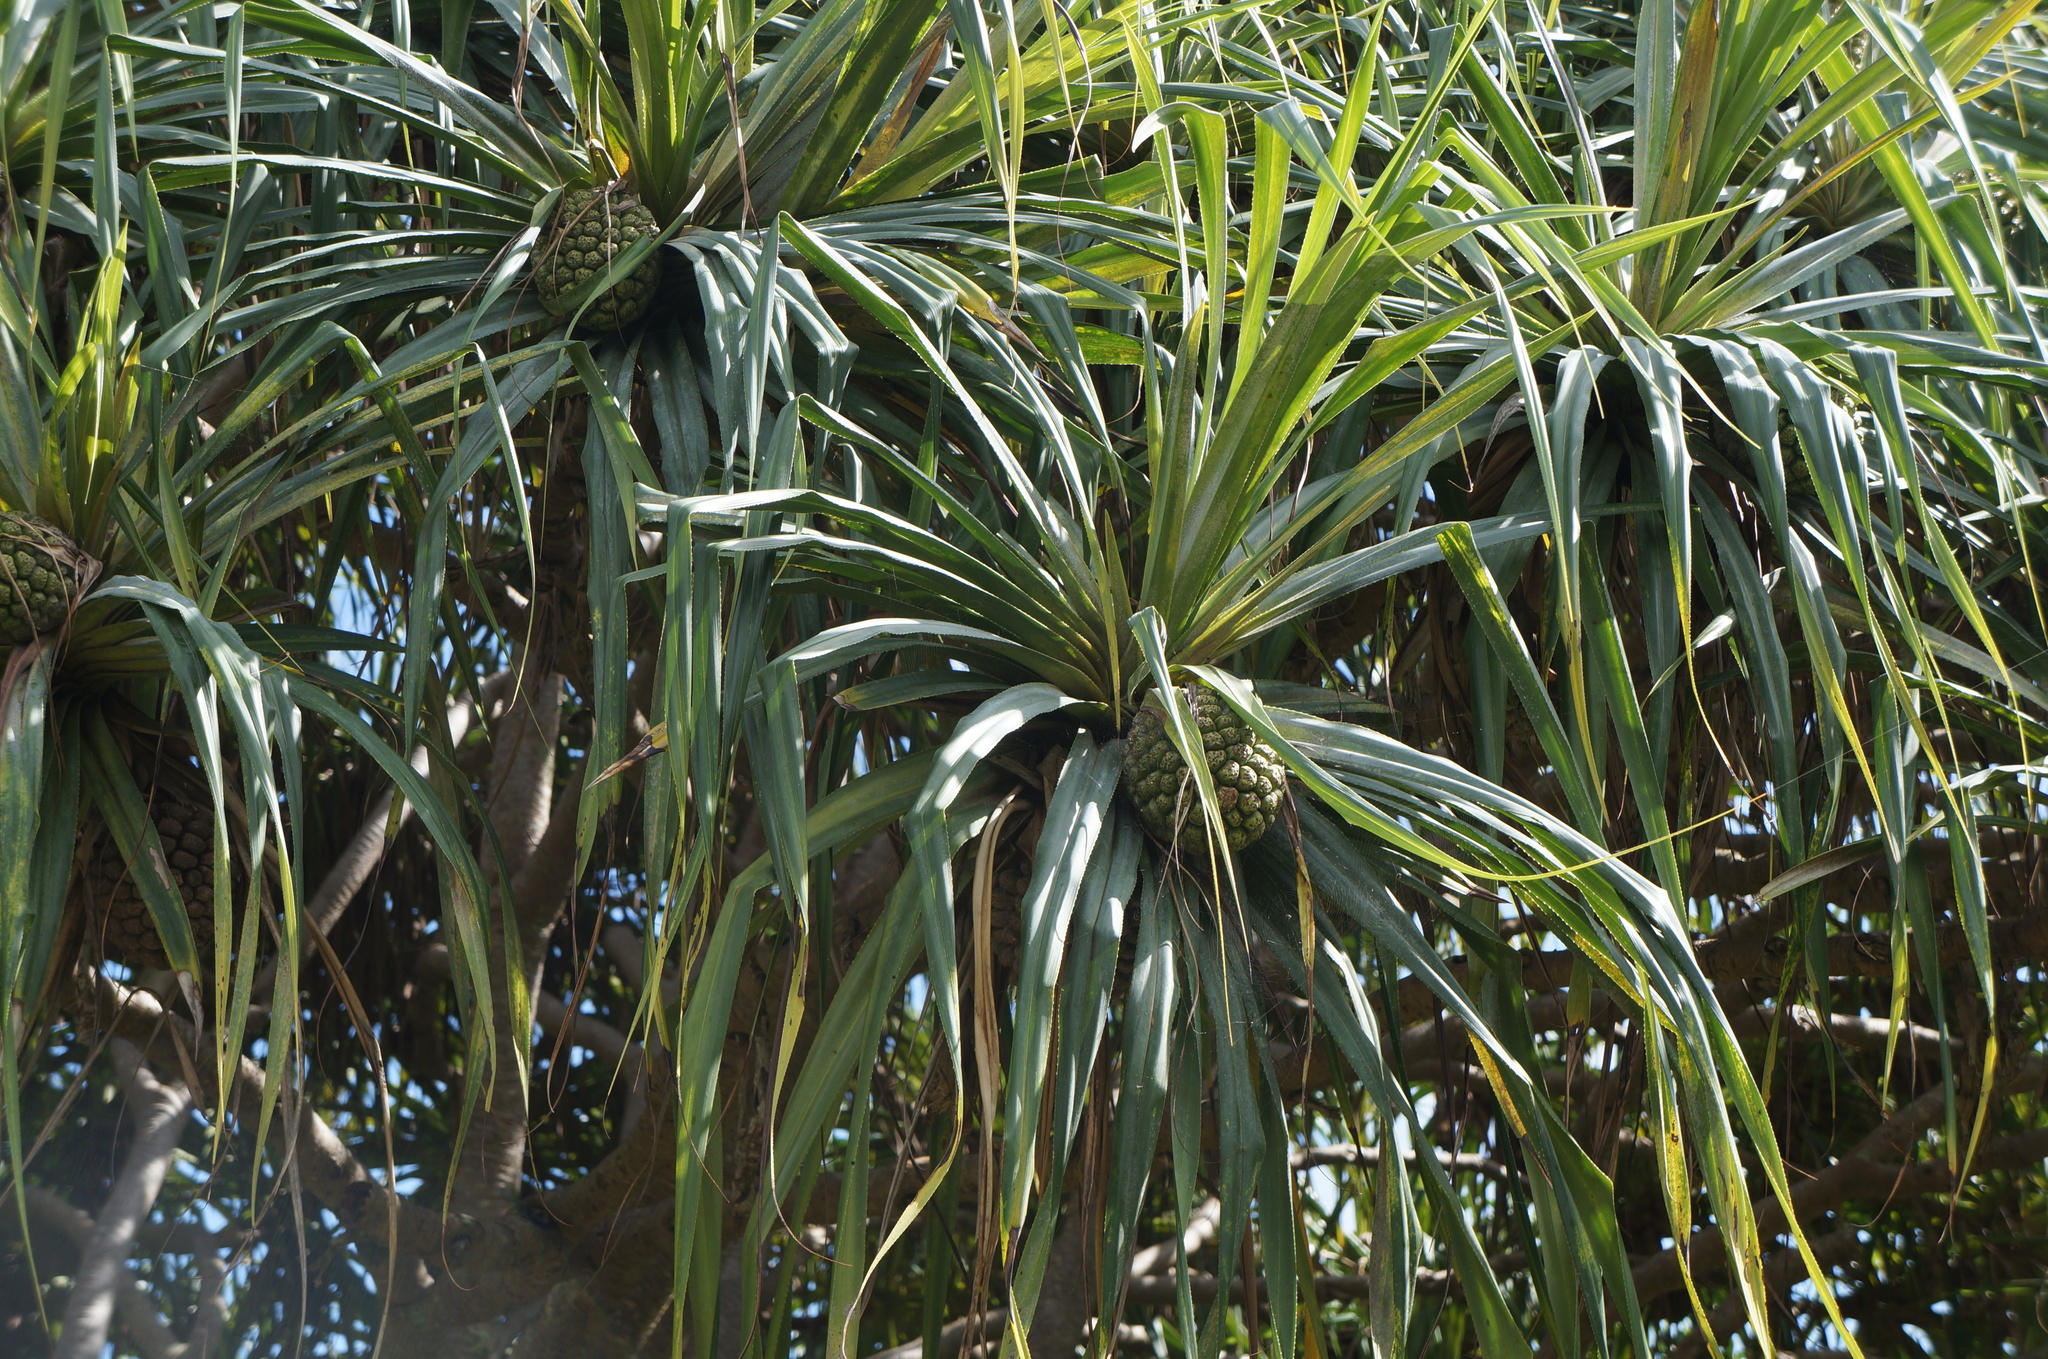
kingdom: Plantae
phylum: Tracheophyta
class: Liliopsida
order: Pandanales
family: Pandanaceae
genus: Pandanus
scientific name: Pandanus tectorius
